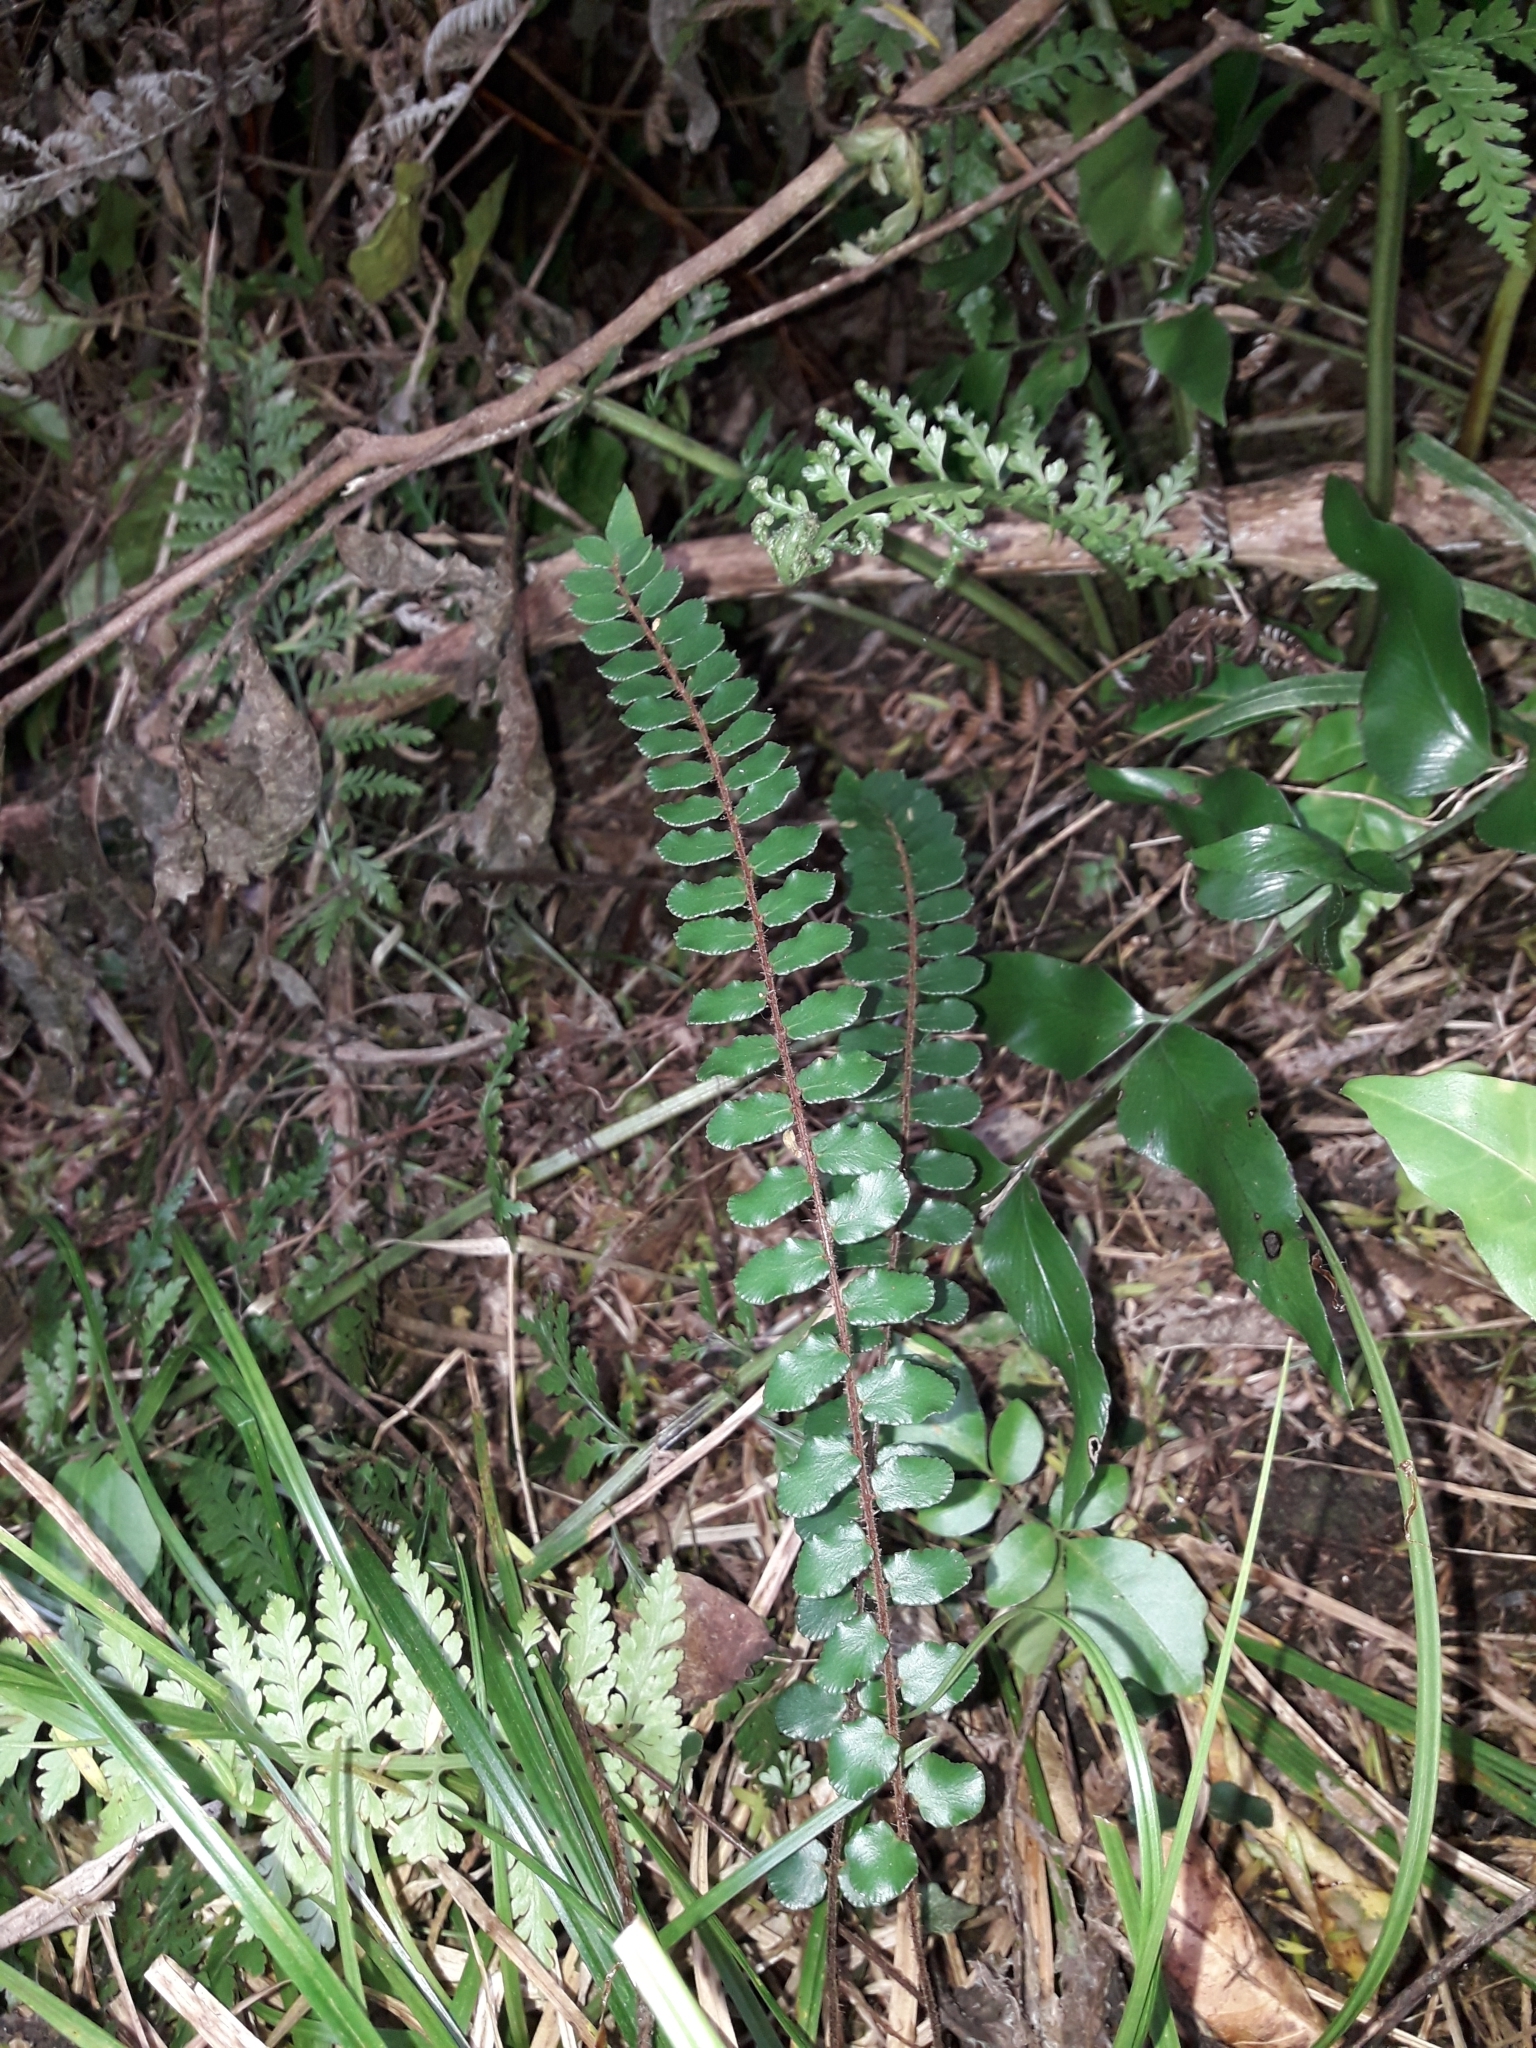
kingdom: Plantae
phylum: Tracheophyta
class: Polypodiopsida
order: Polypodiales
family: Pteridaceae
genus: Pellaea
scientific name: Pellaea rotundifolia
